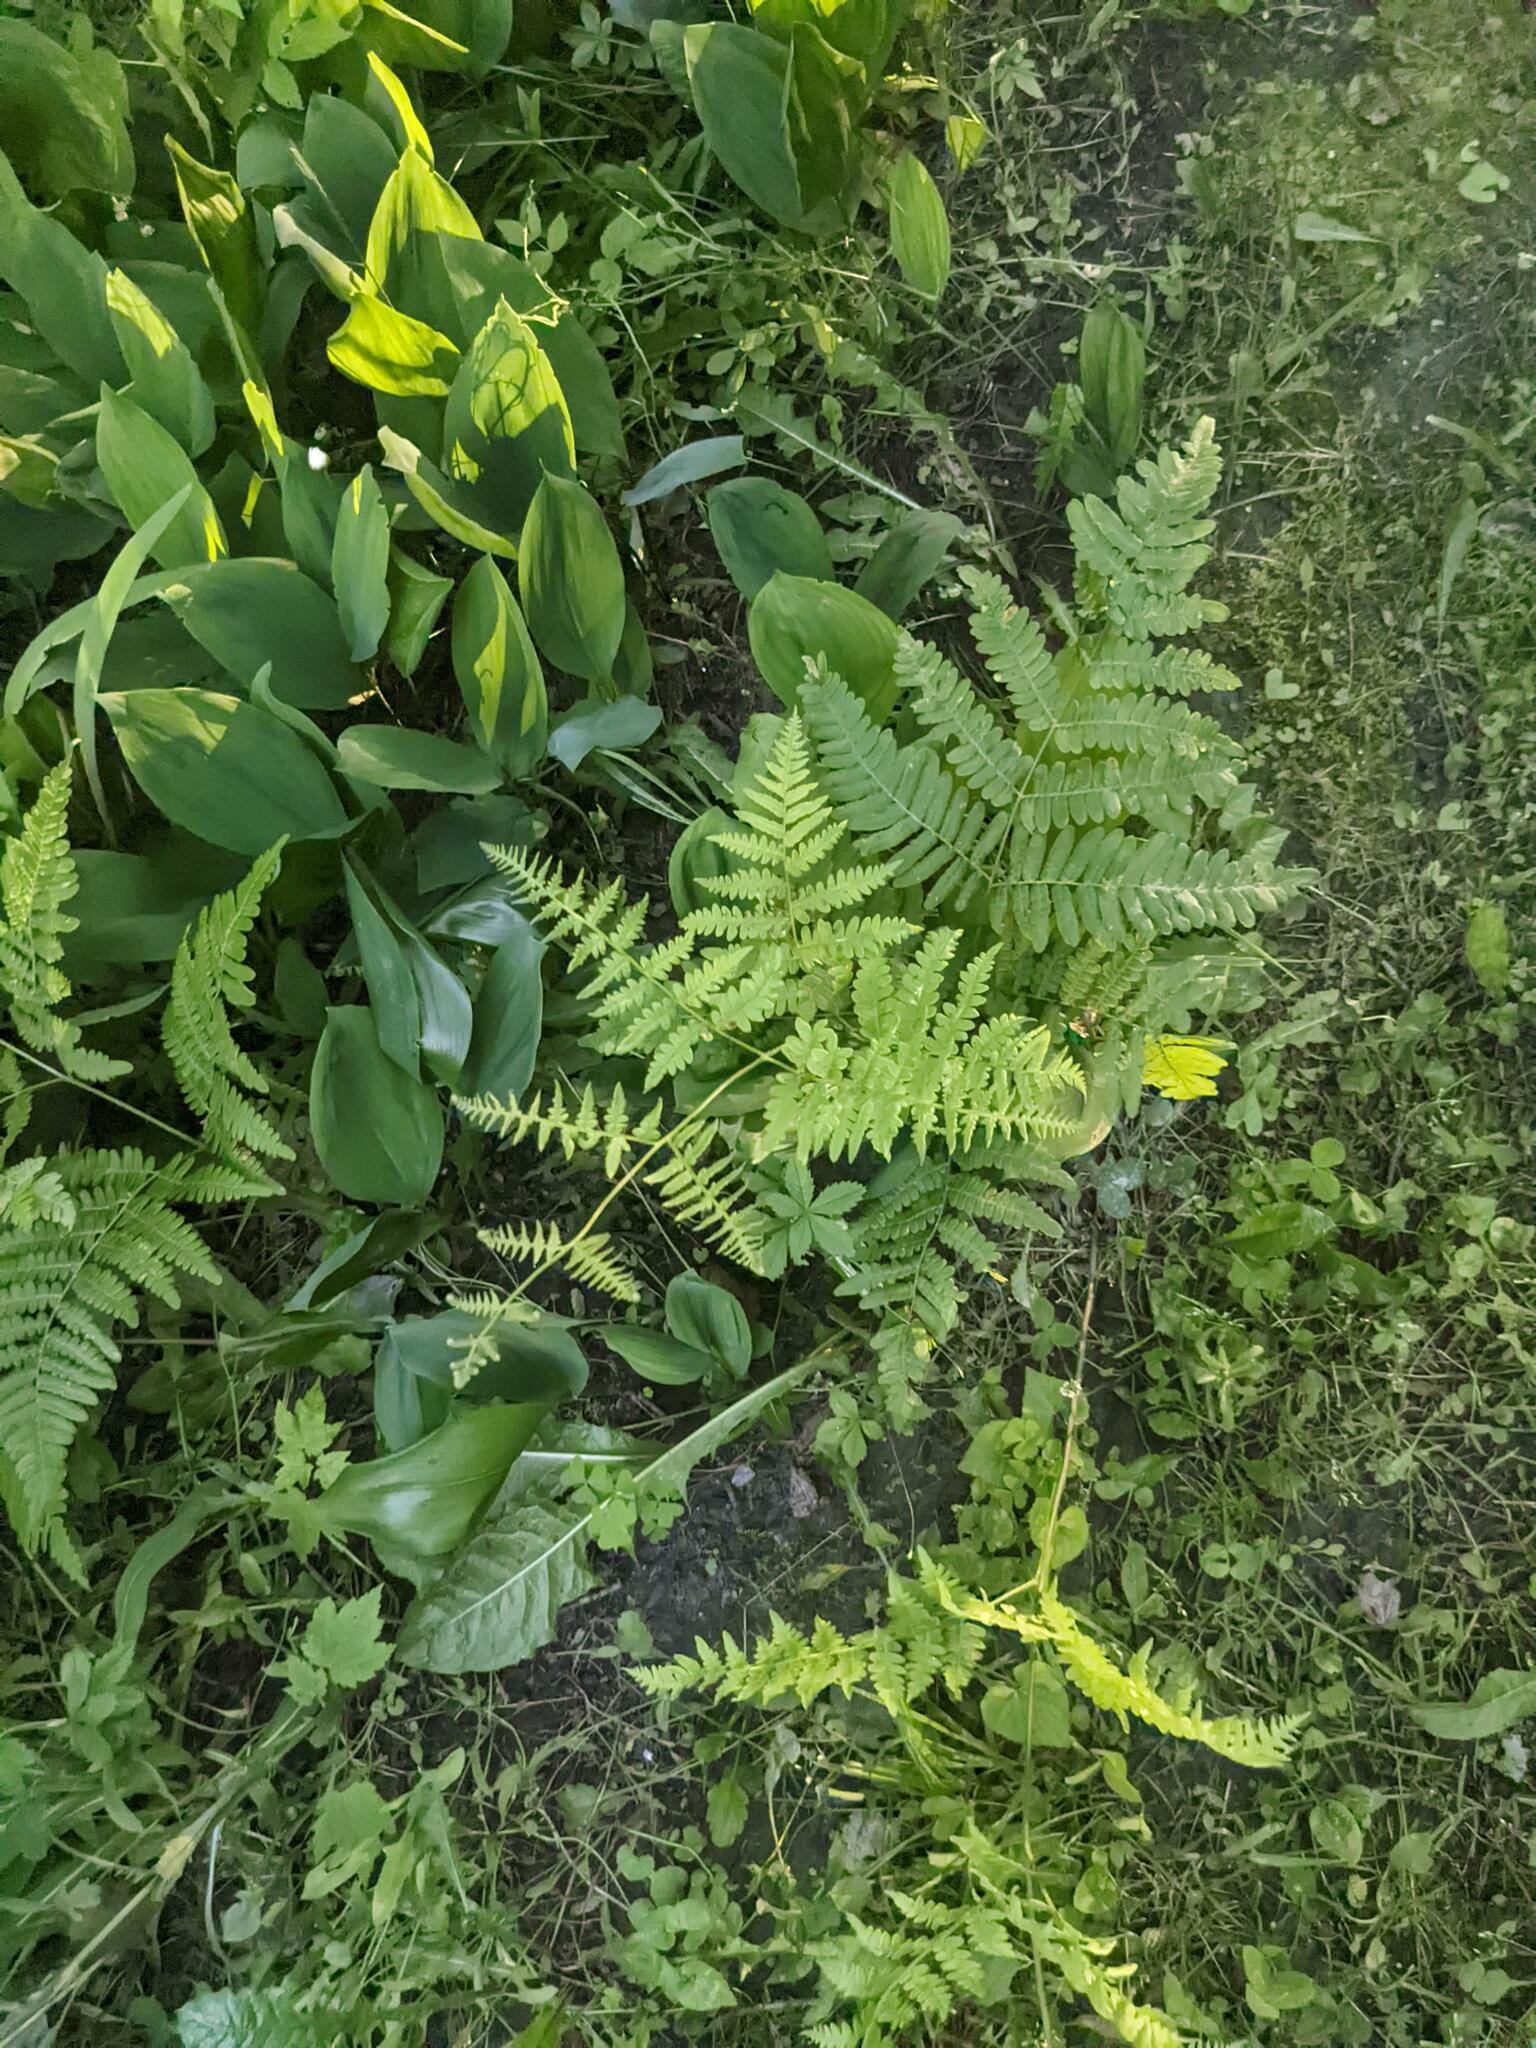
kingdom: Plantae
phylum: Tracheophyta
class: Polypodiopsida
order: Polypodiales
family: Dennstaedtiaceae
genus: Pteridium
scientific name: Pteridium aquilinum
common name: Bracken
